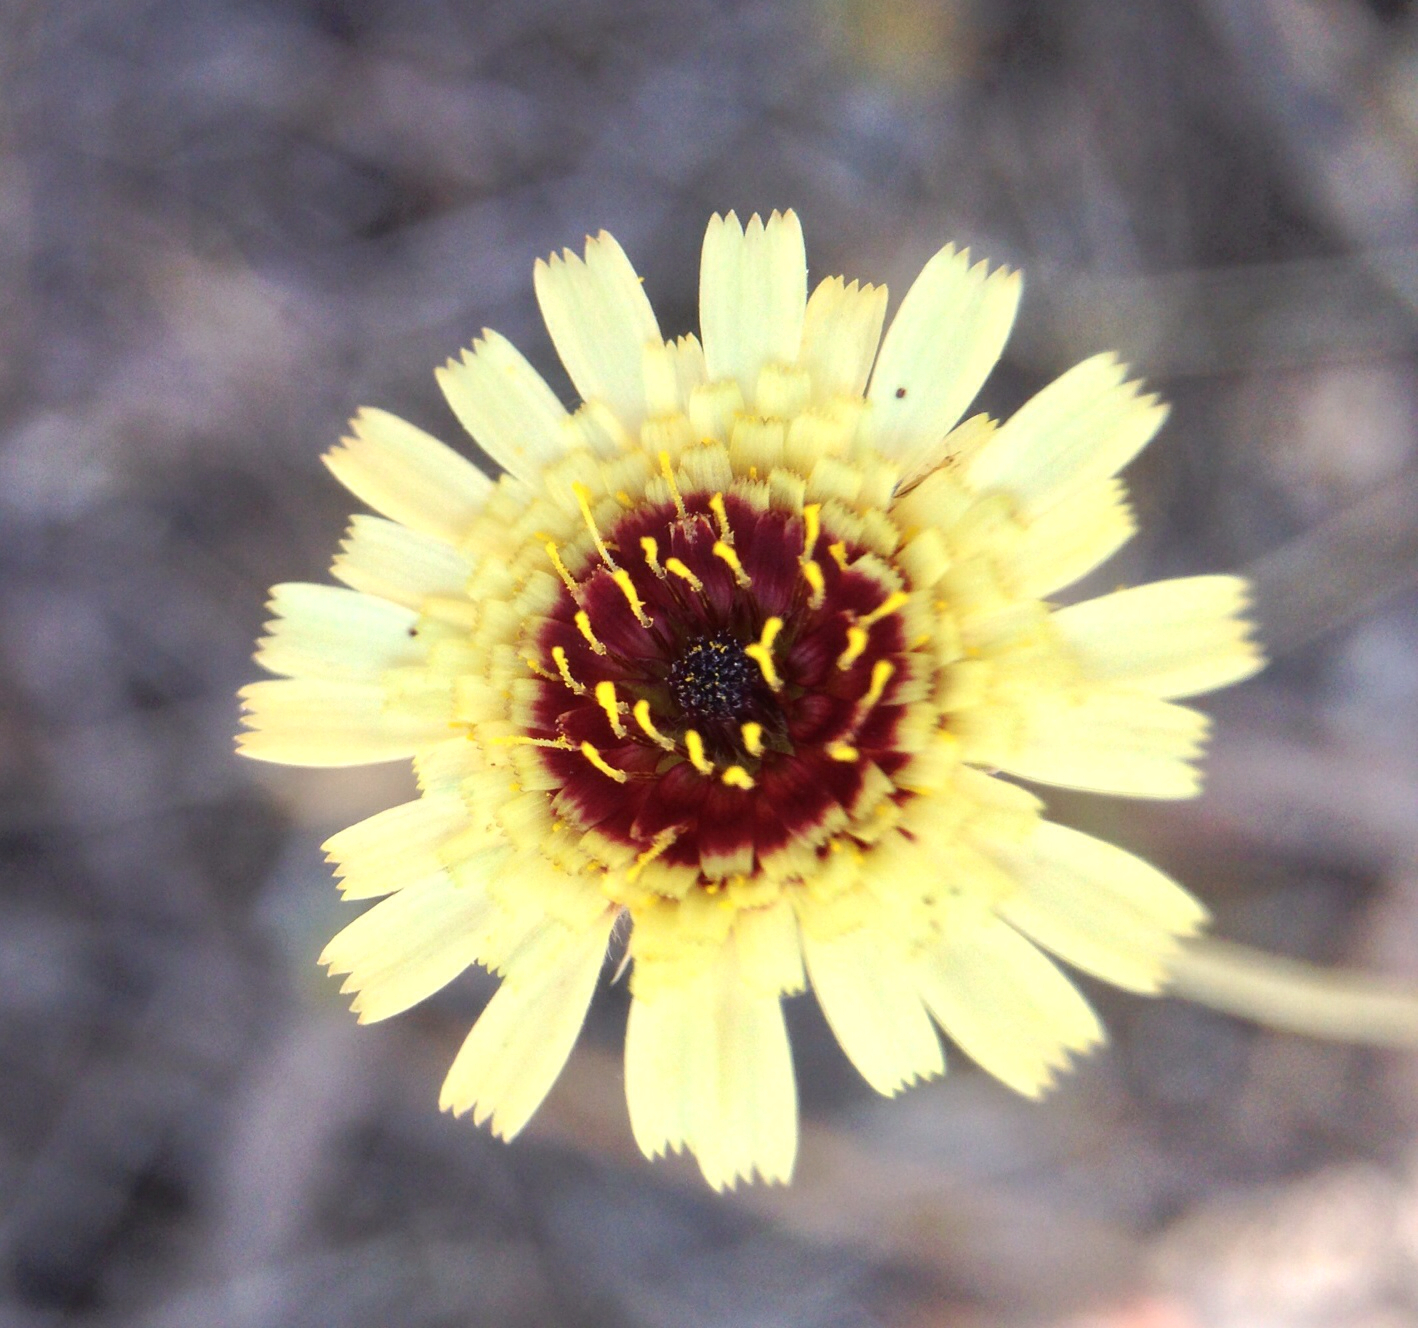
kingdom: Plantae
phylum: Tracheophyta
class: Magnoliopsida
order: Asterales
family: Asteraceae
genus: Tolpis
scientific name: Tolpis barbata
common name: Yellow hawkweed
